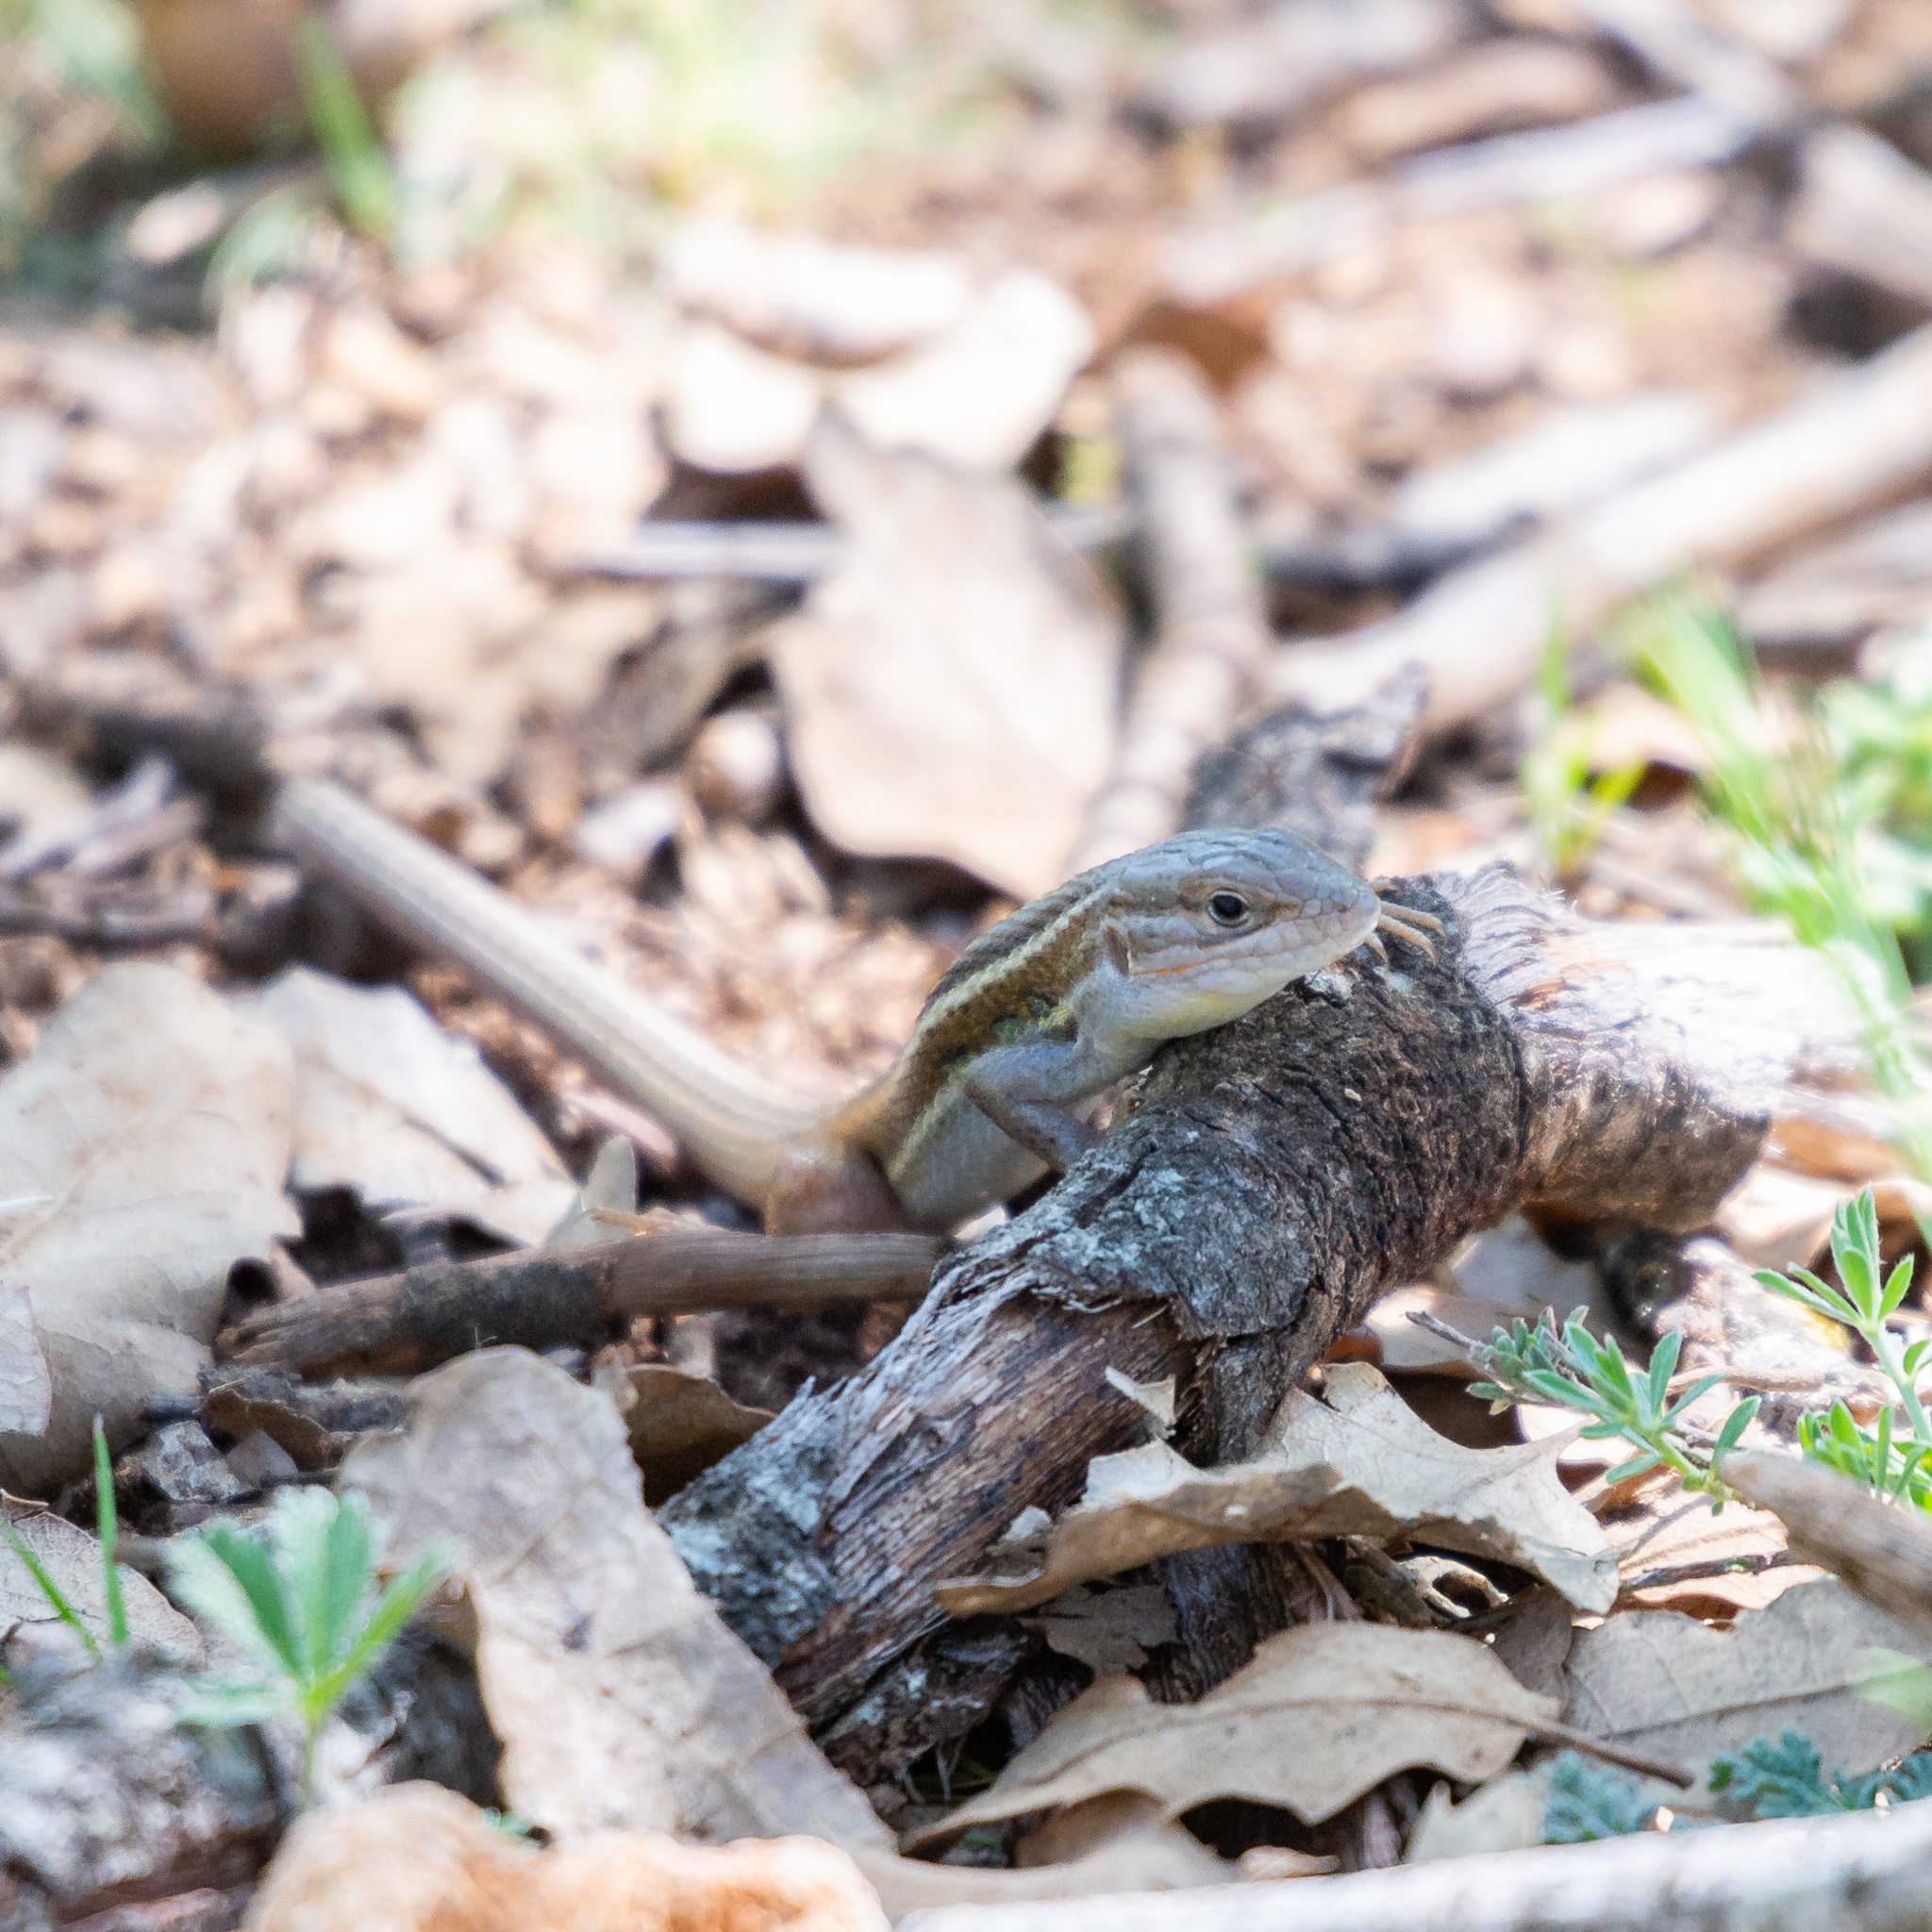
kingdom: Animalia
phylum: Chordata
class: Squamata
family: Lacertidae
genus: Psammodromus
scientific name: Psammodromus algirus
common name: Algerian psammodromus
